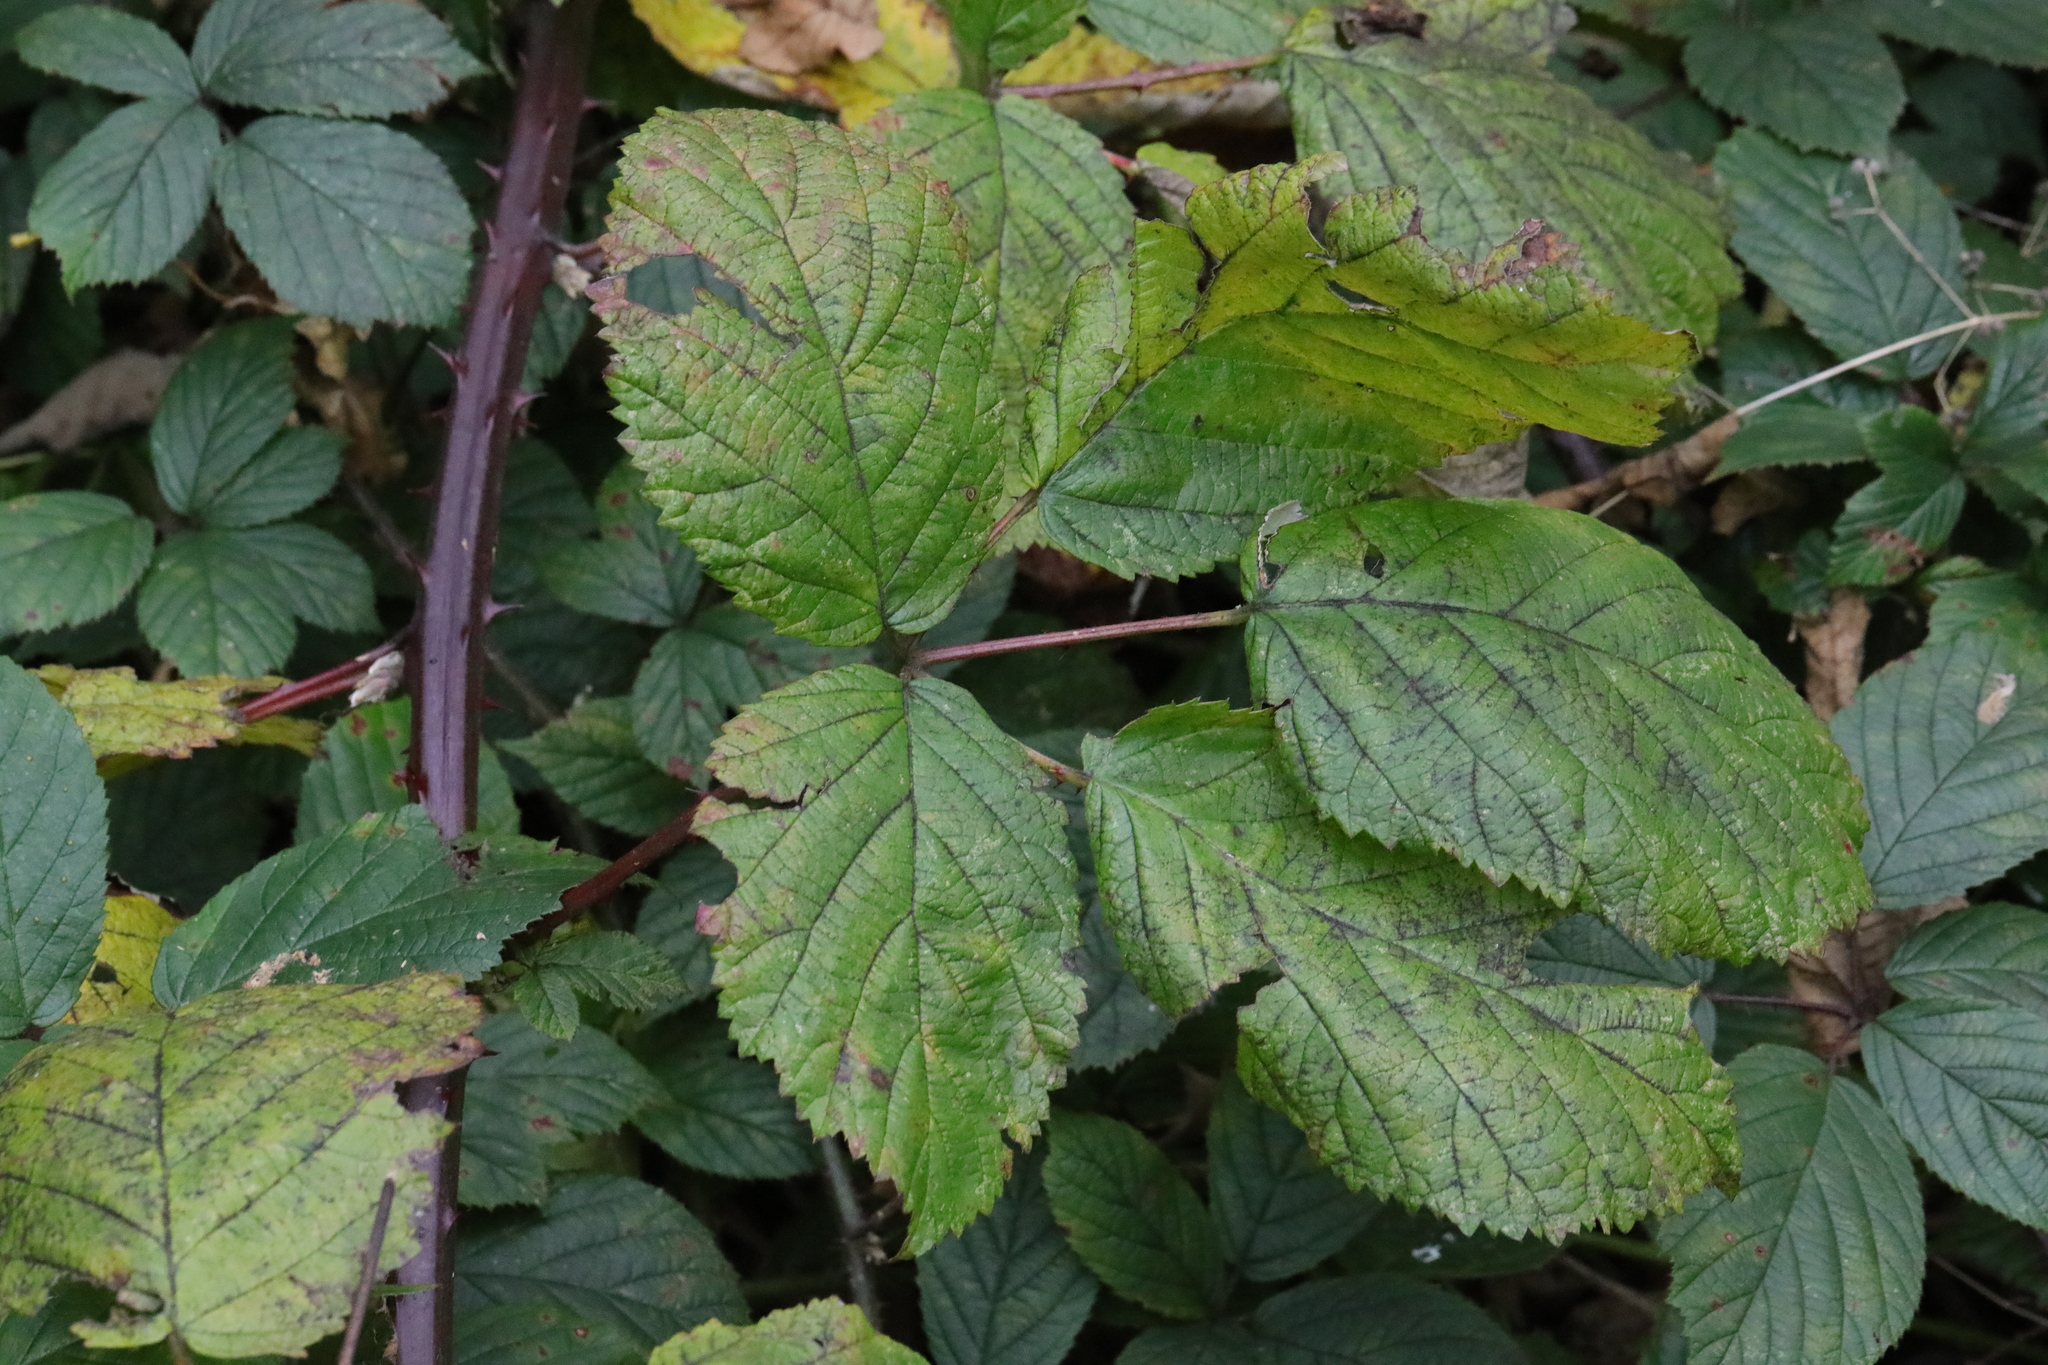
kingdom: Plantae
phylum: Tracheophyta
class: Magnoliopsida
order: Rosales
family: Rosaceae
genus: Rubus
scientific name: Rubus armeniacus
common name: Himalayan blackberry
